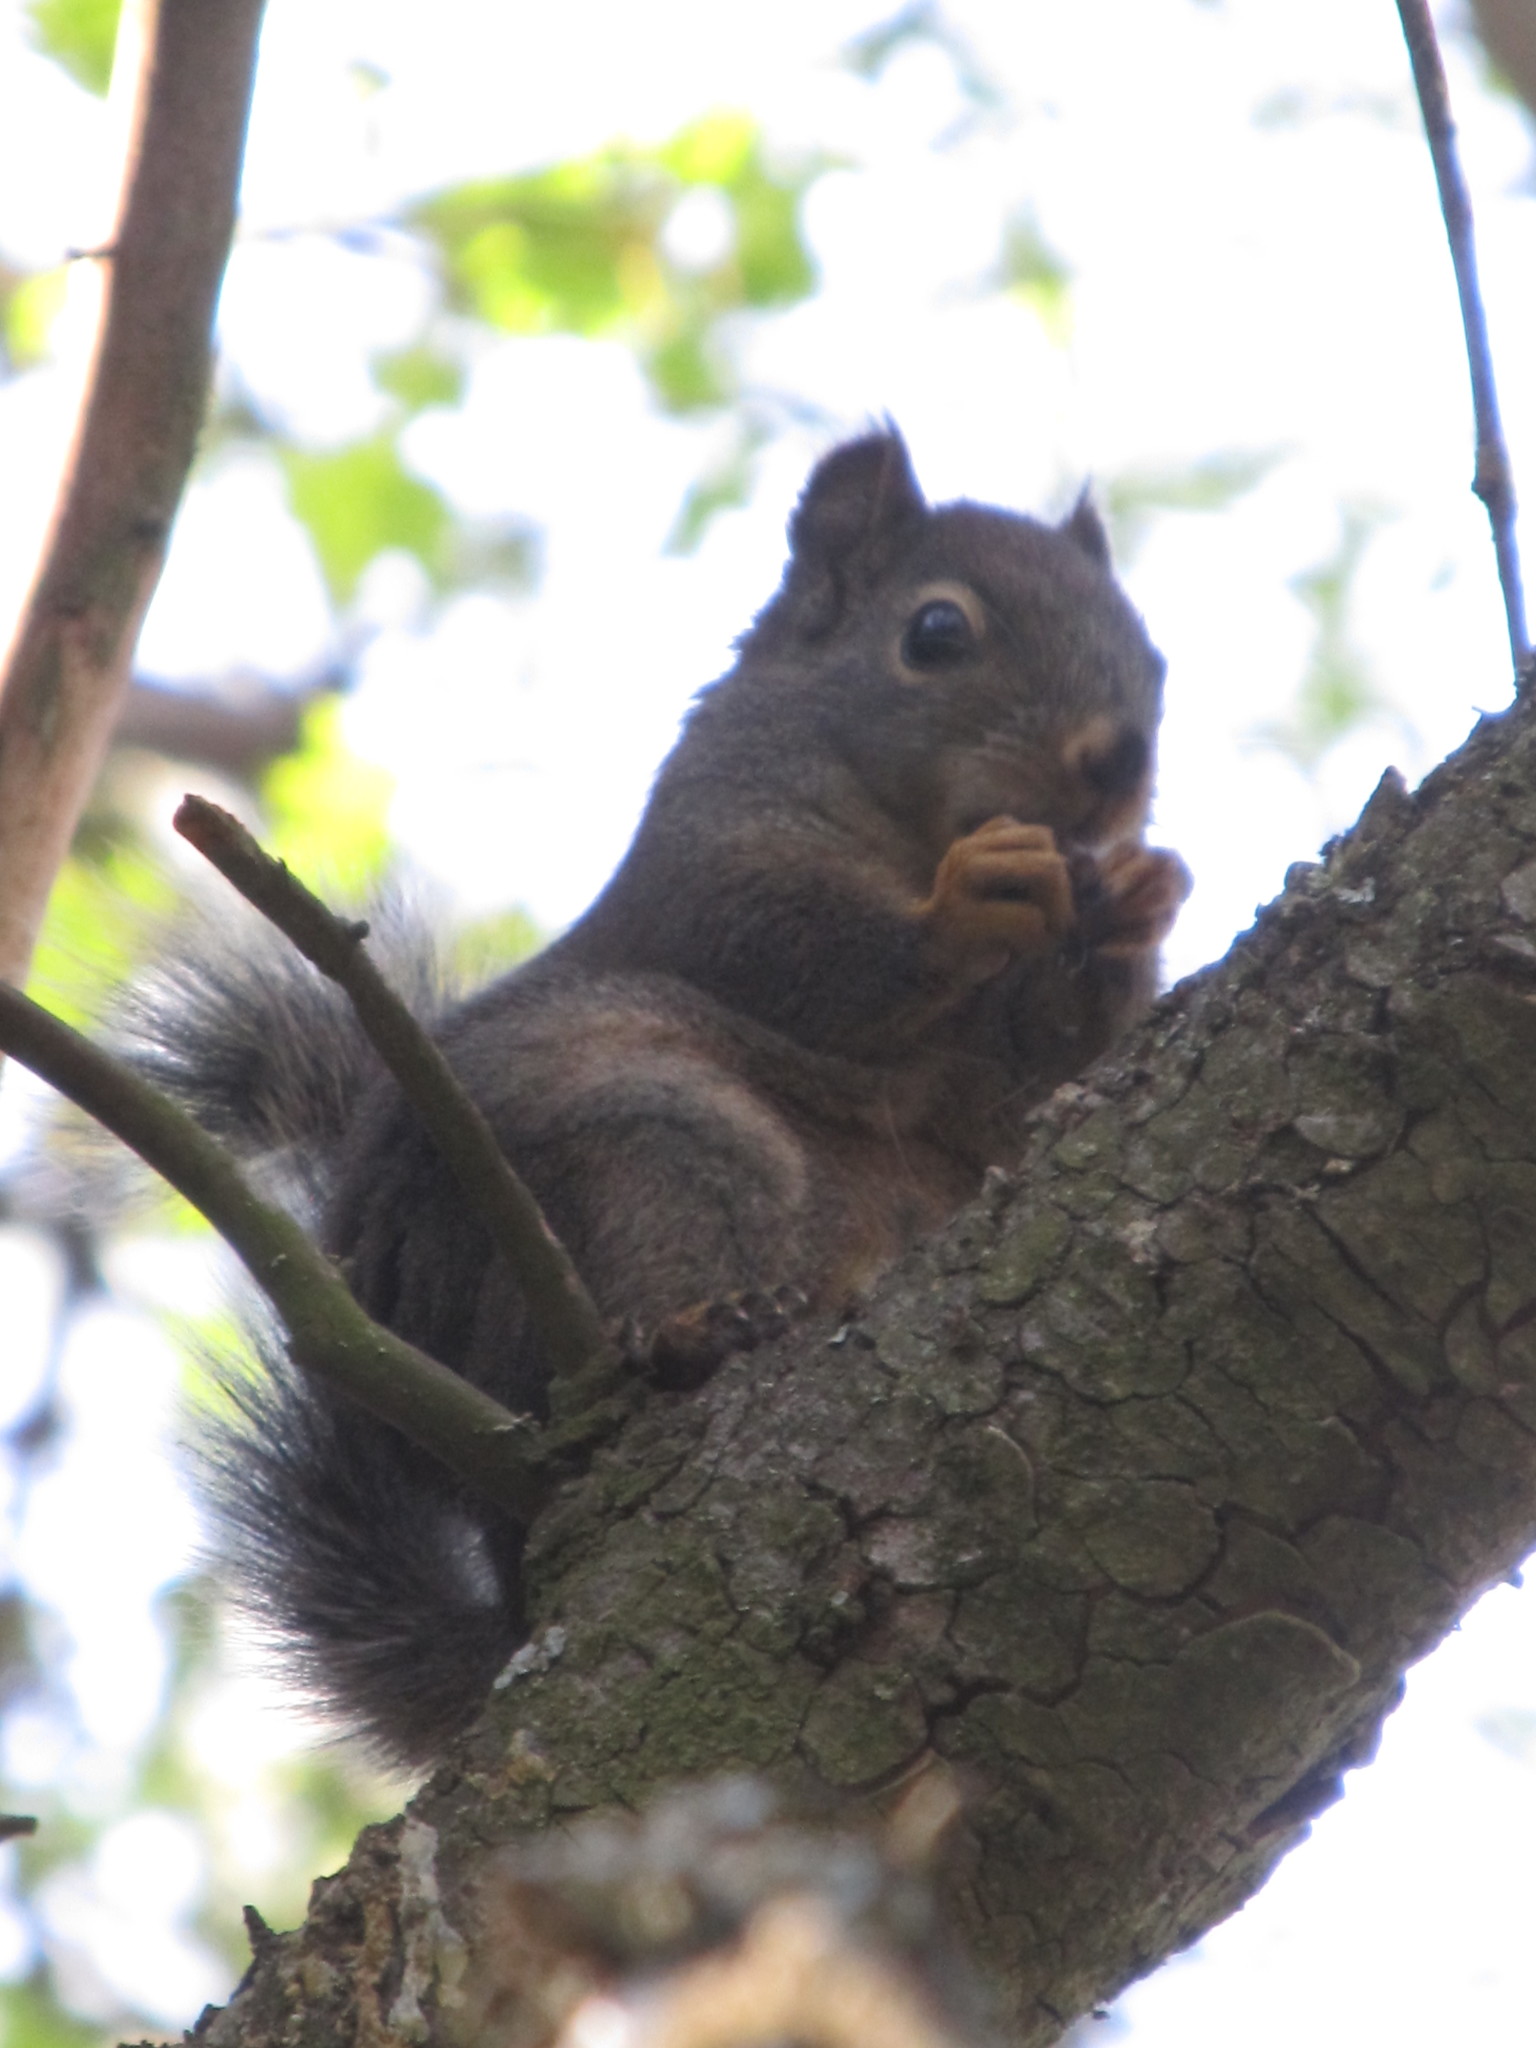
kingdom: Animalia
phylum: Chordata
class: Mammalia
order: Rodentia
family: Sciuridae
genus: Tamiasciurus
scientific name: Tamiasciurus douglasii
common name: Douglas's squirrel
